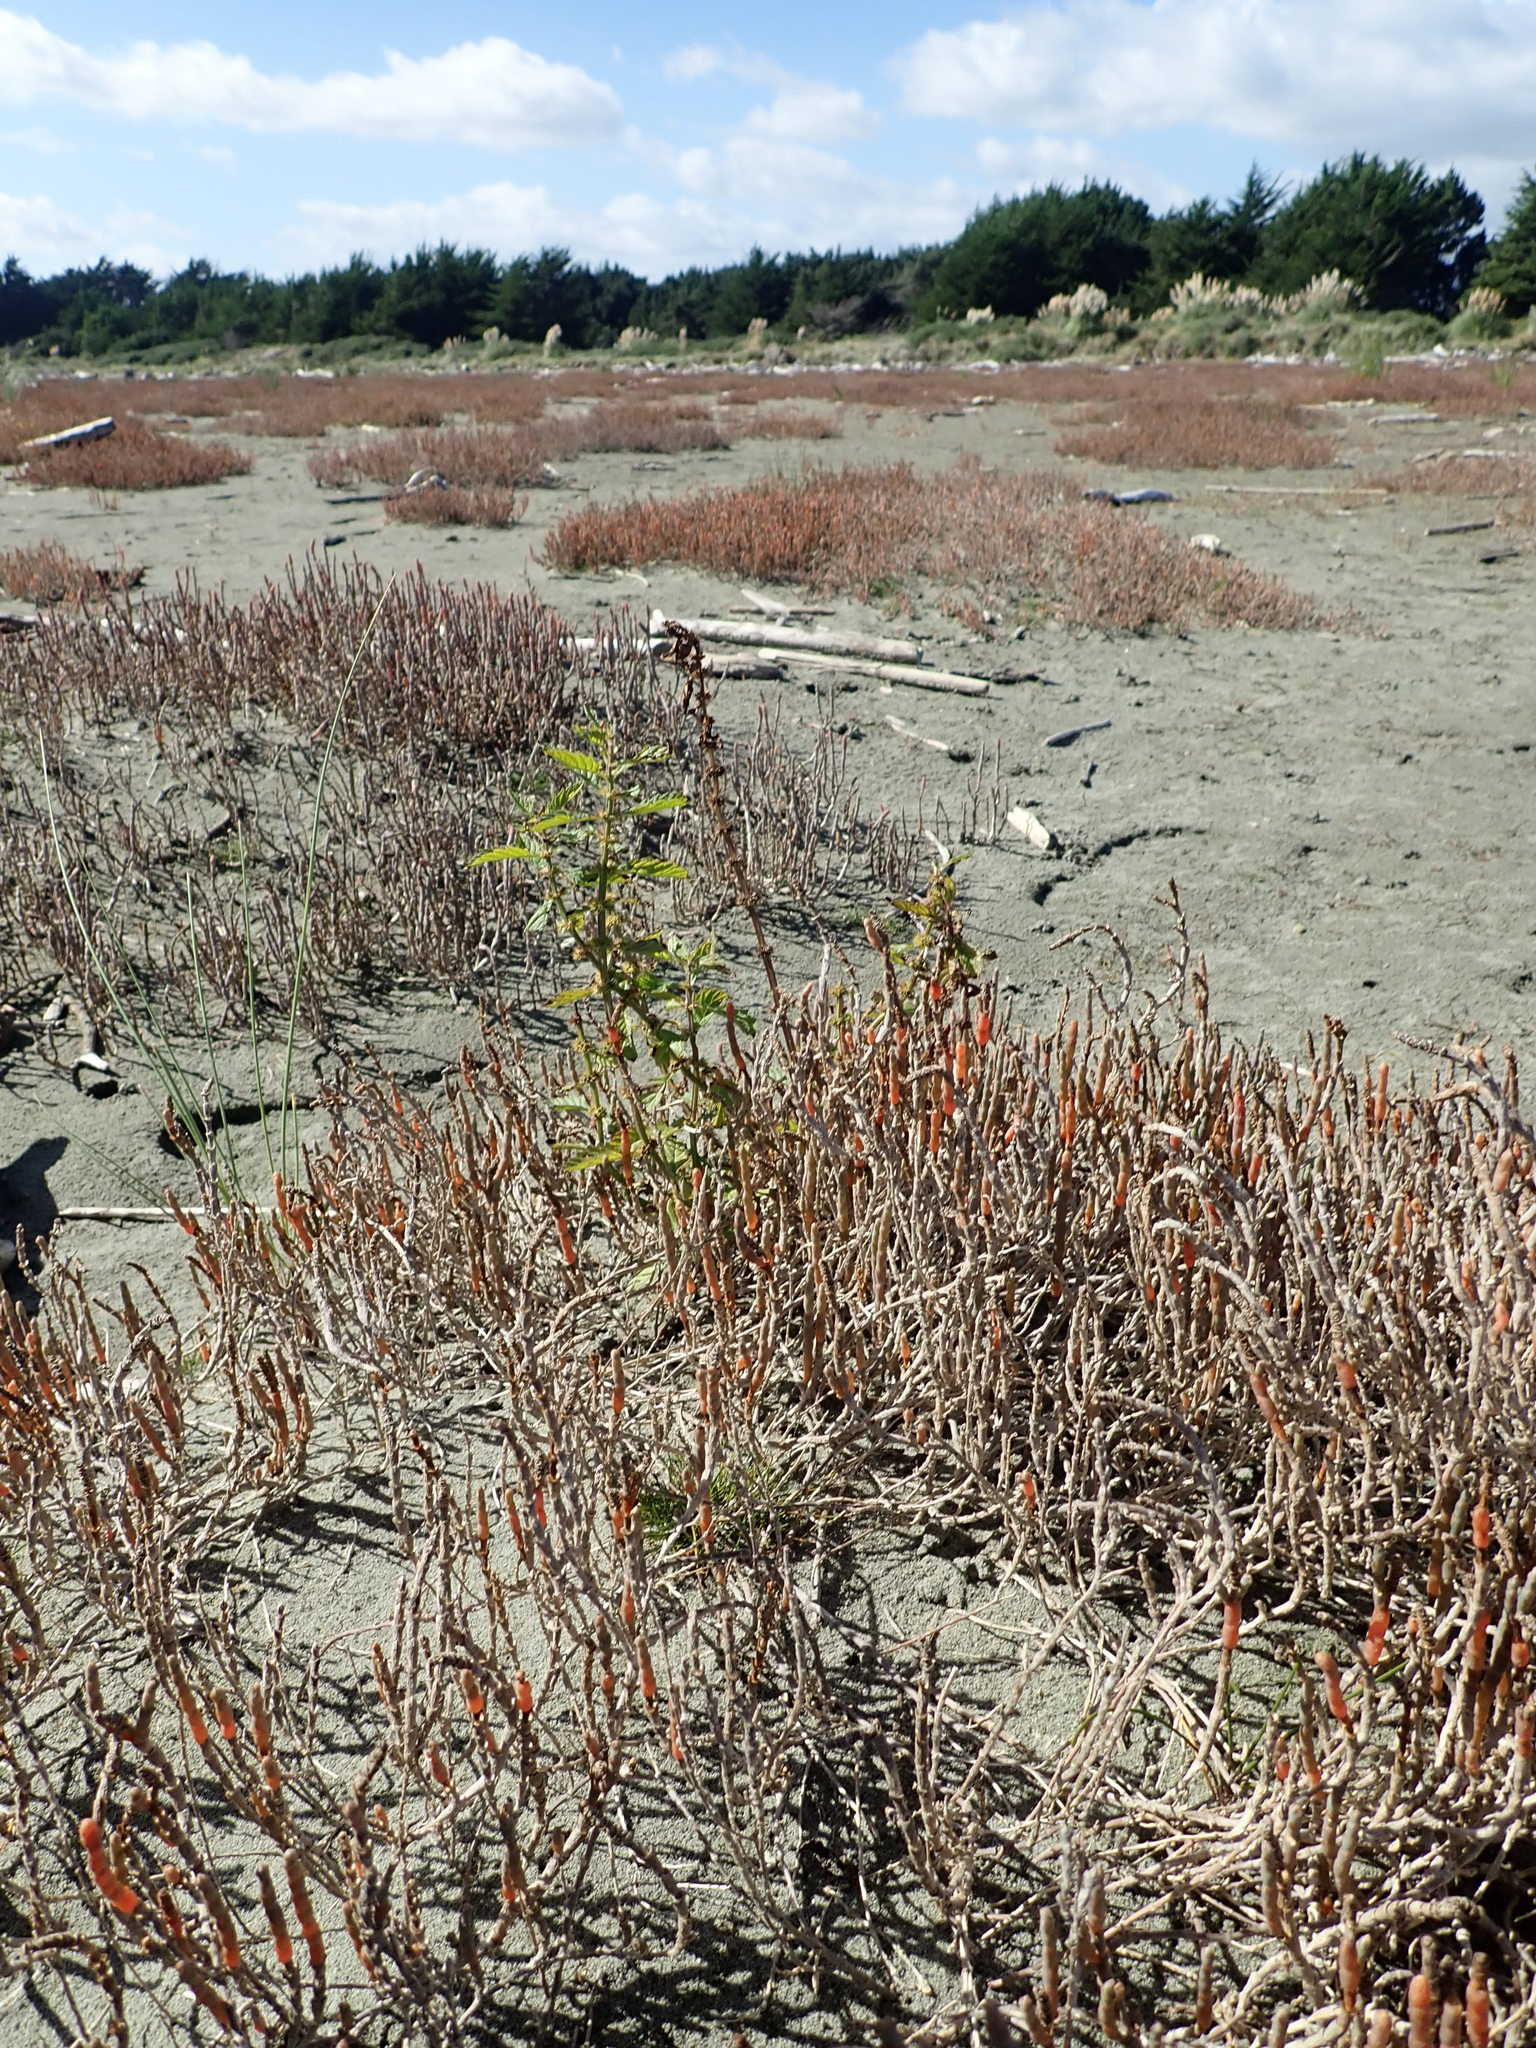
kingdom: Plantae
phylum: Tracheophyta
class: Magnoliopsida
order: Lamiales
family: Lamiaceae
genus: Lycopus
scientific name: Lycopus europaeus
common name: European bugleweed
